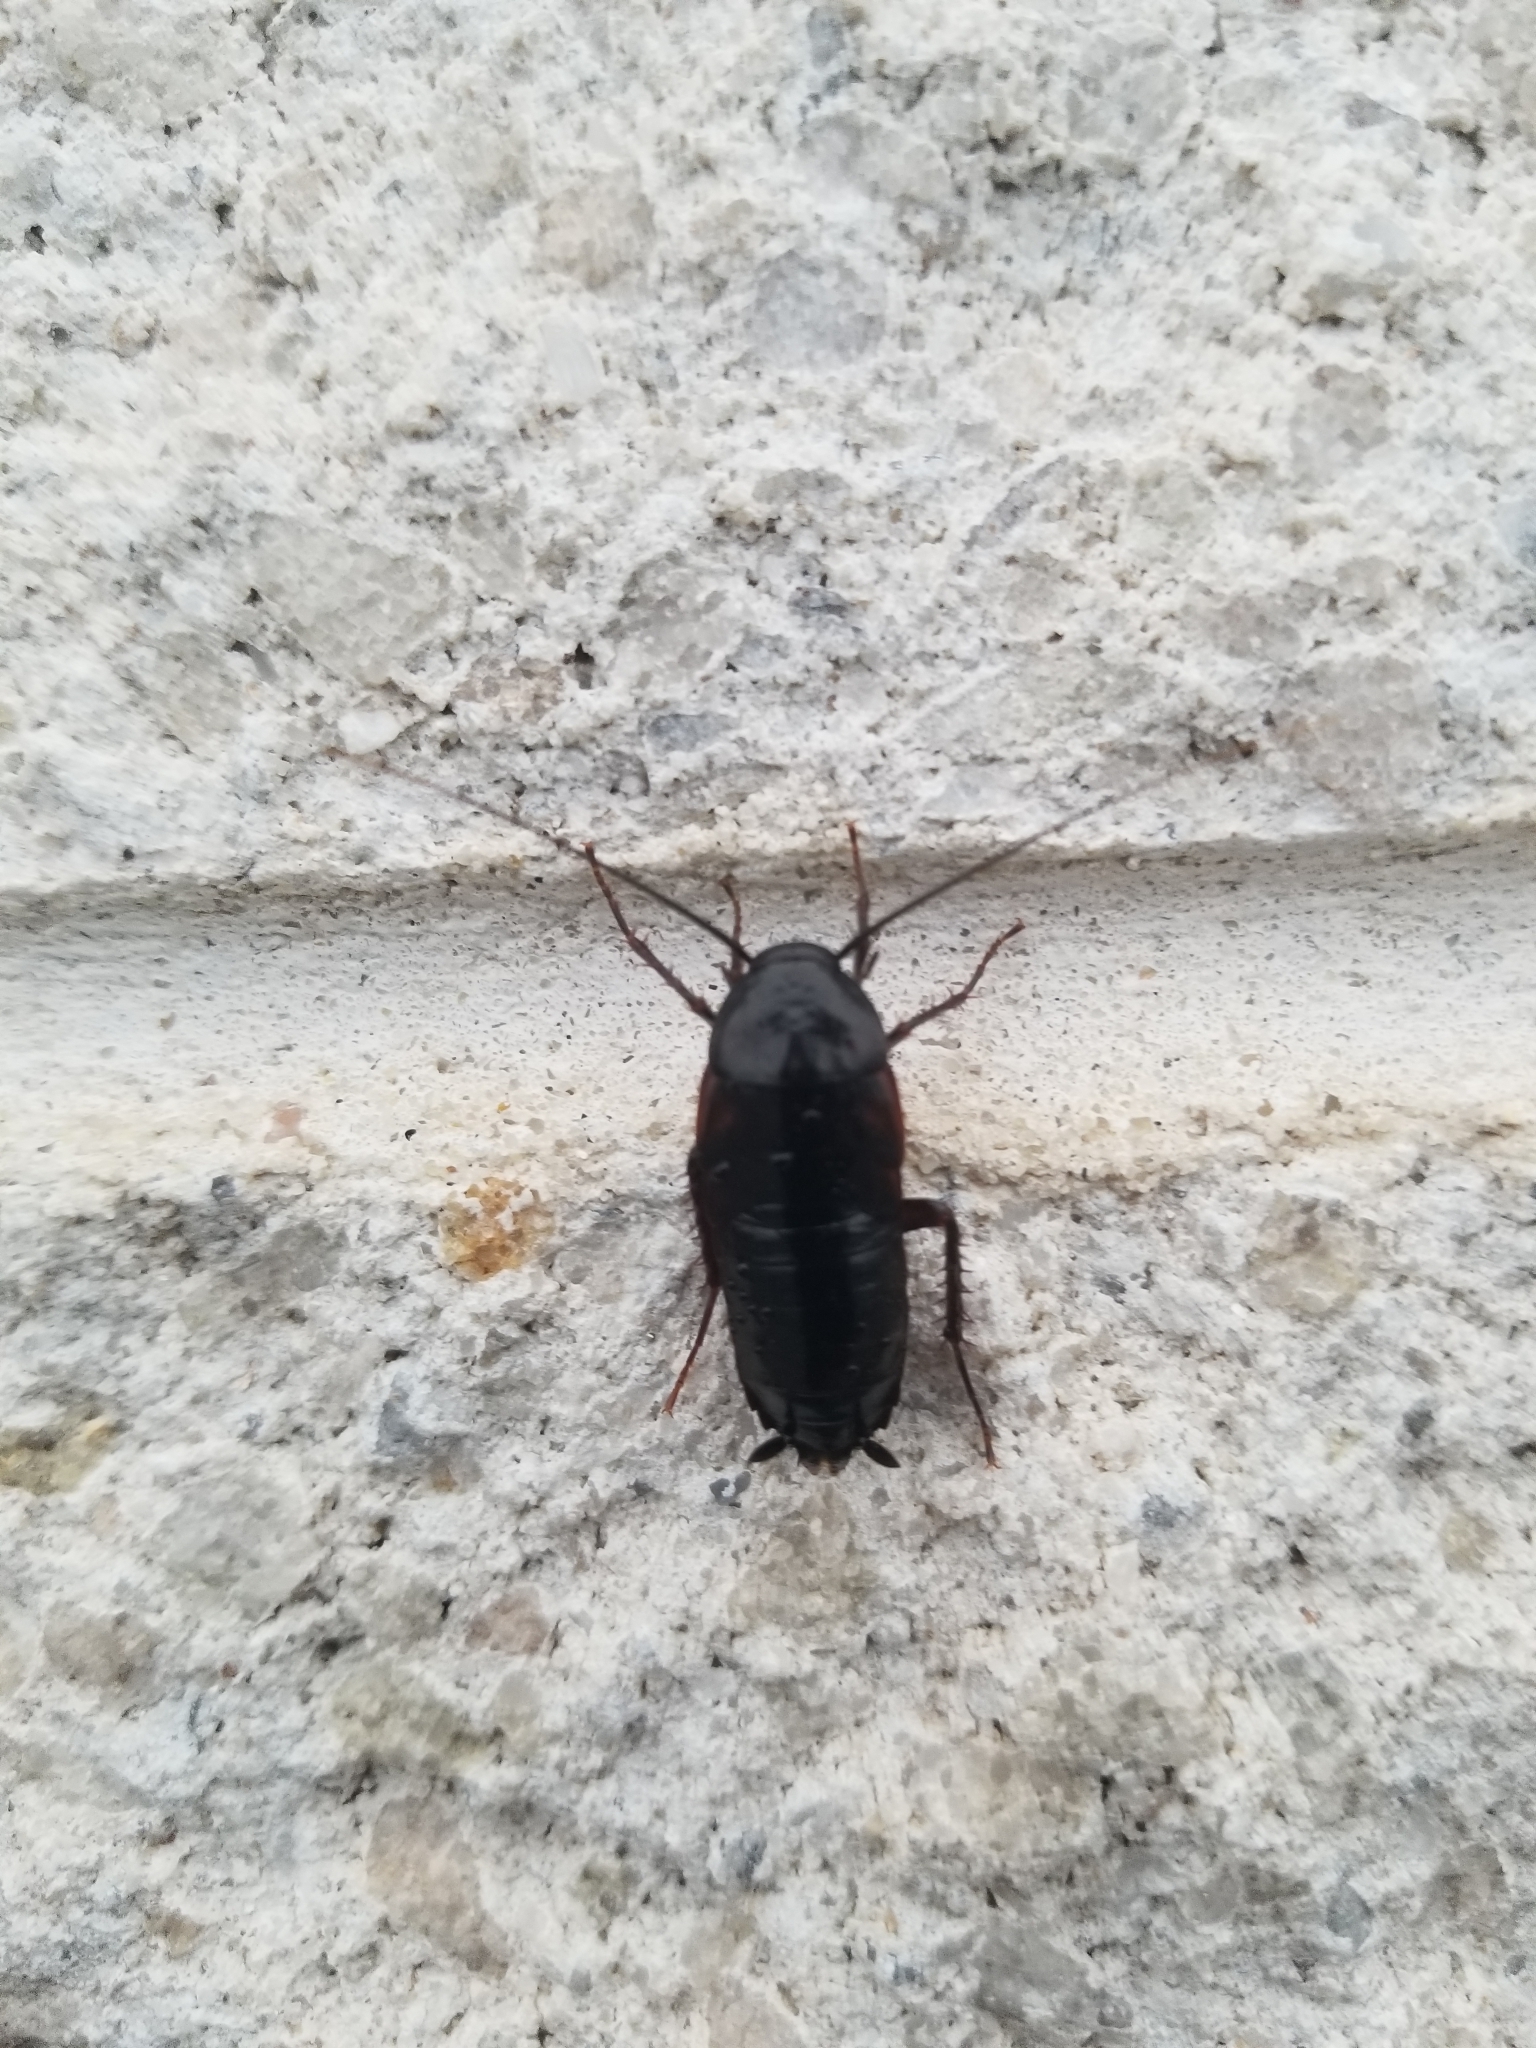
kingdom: Animalia
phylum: Arthropoda
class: Insecta
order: Blattodea
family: Blattidae
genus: Blatta
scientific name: Blatta orientalis
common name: Oriental cockroach
